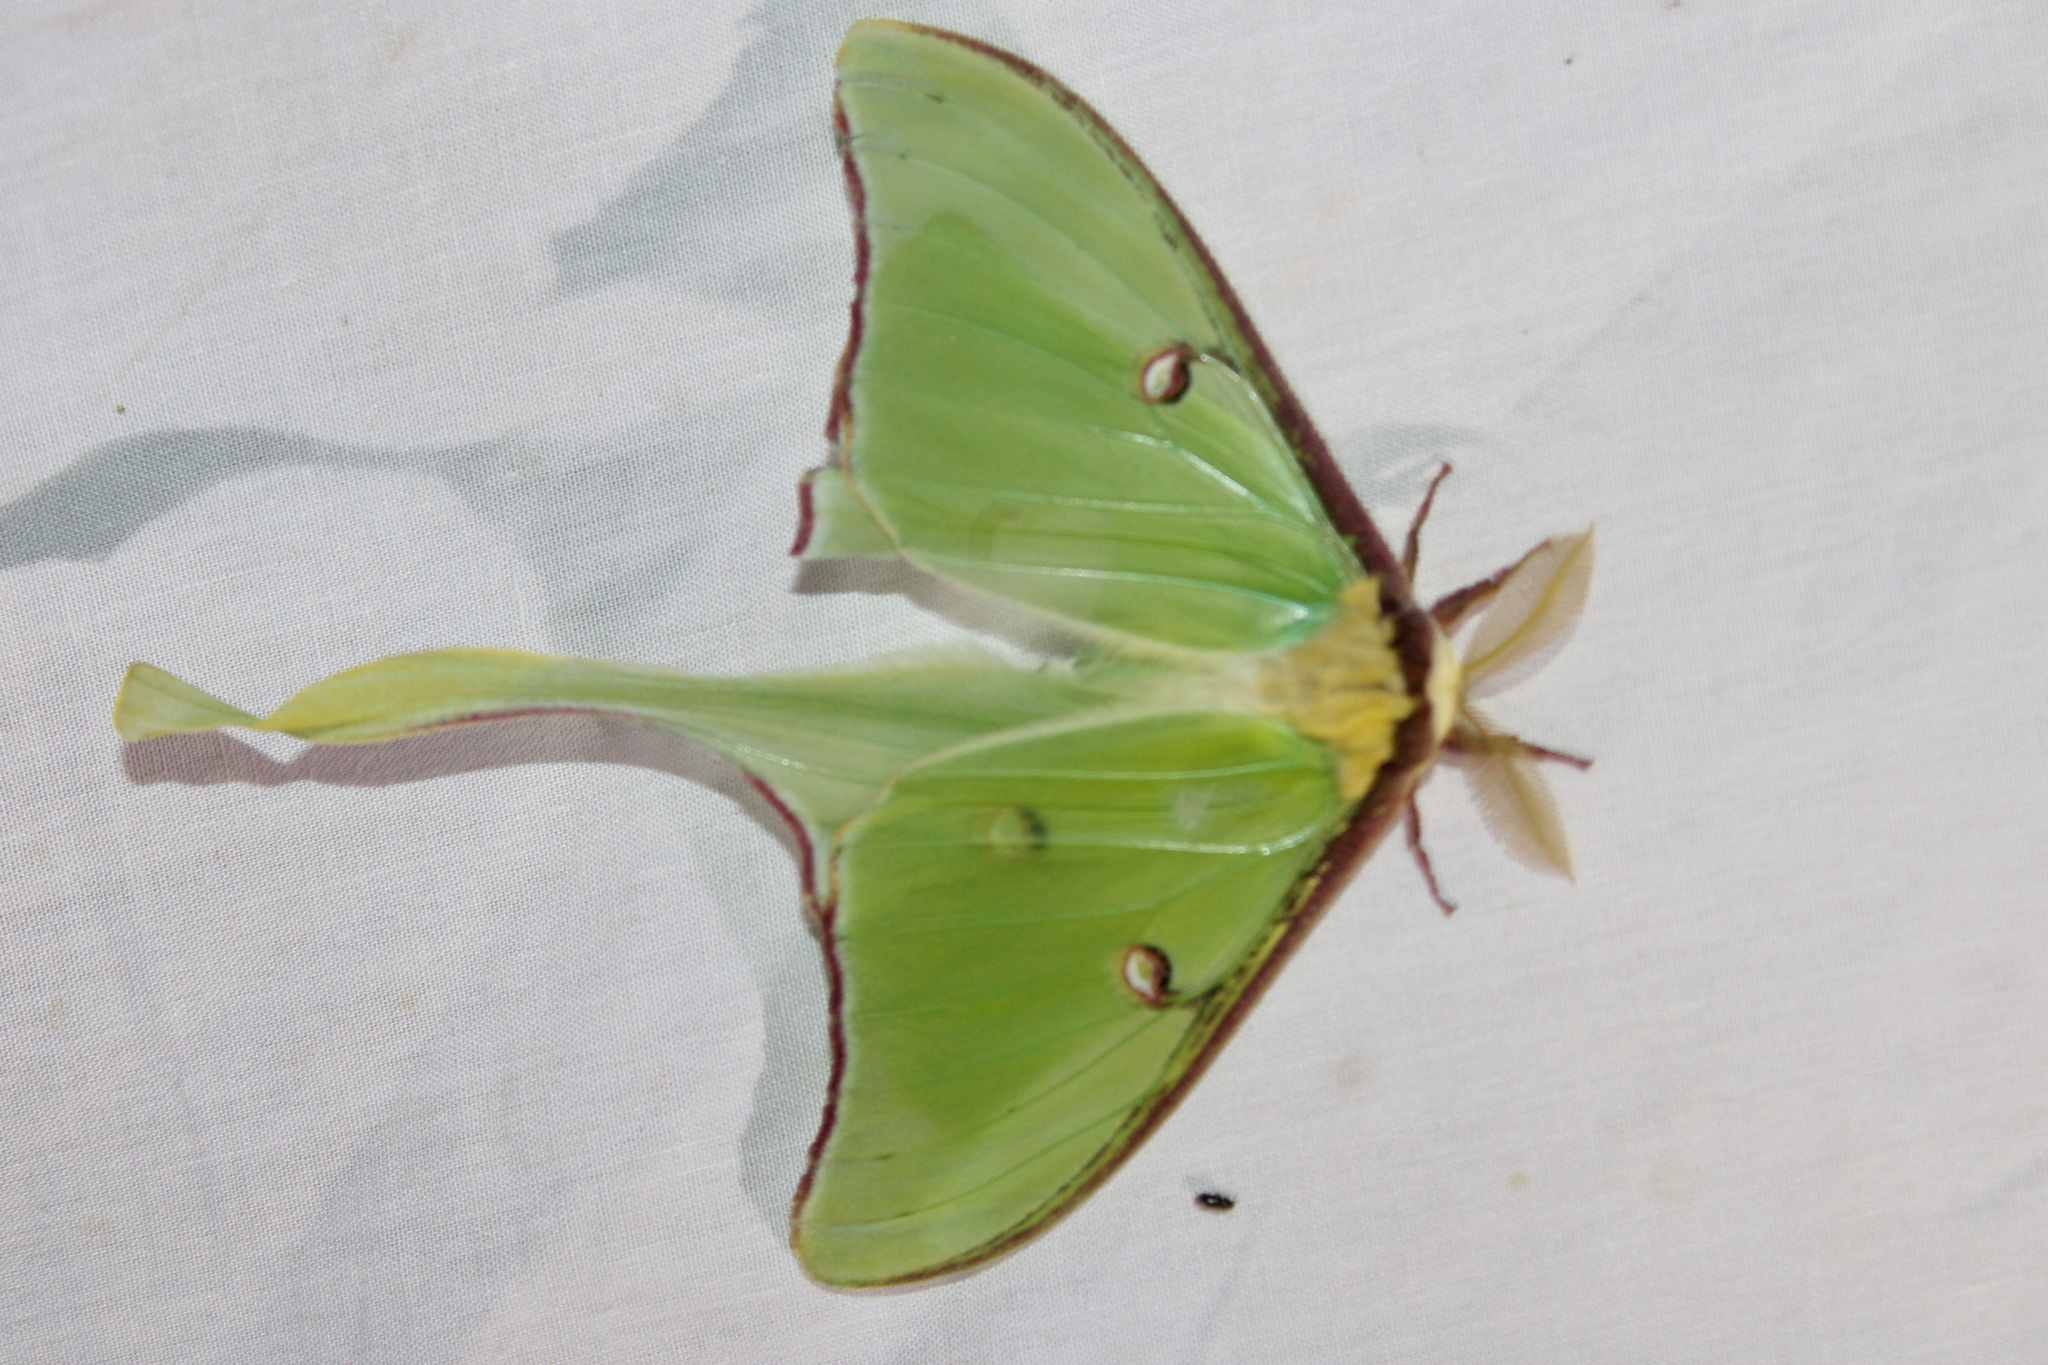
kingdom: Animalia
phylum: Arthropoda
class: Insecta
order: Lepidoptera
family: Saturniidae
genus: Actias
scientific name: Actias luna
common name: Luna moth
